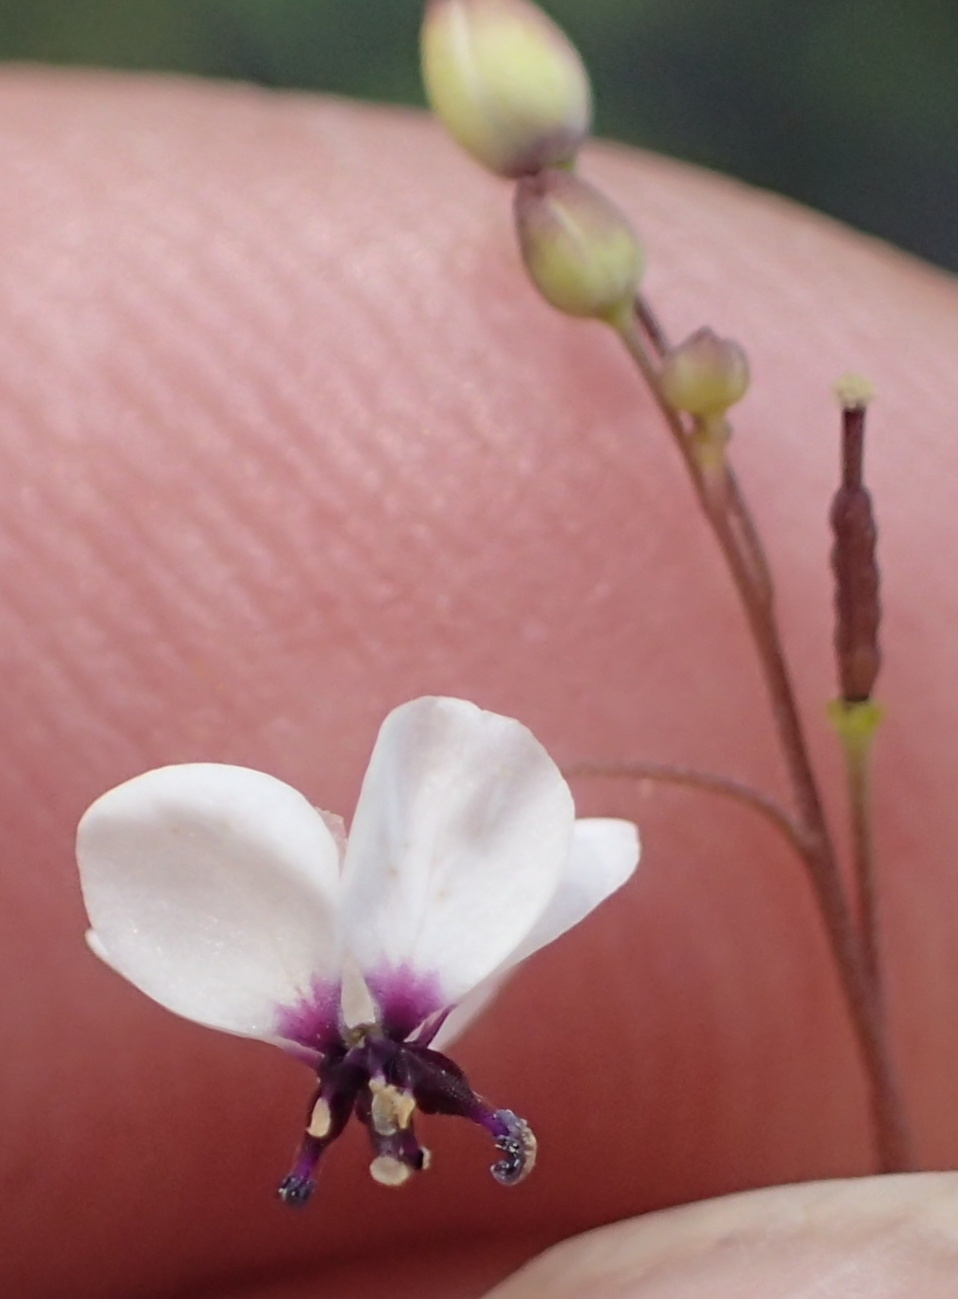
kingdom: Plantae
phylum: Tracheophyta
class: Magnoliopsida
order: Brassicales
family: Brassicaceae
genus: Heliophila
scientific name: Heliophila goldblattii
